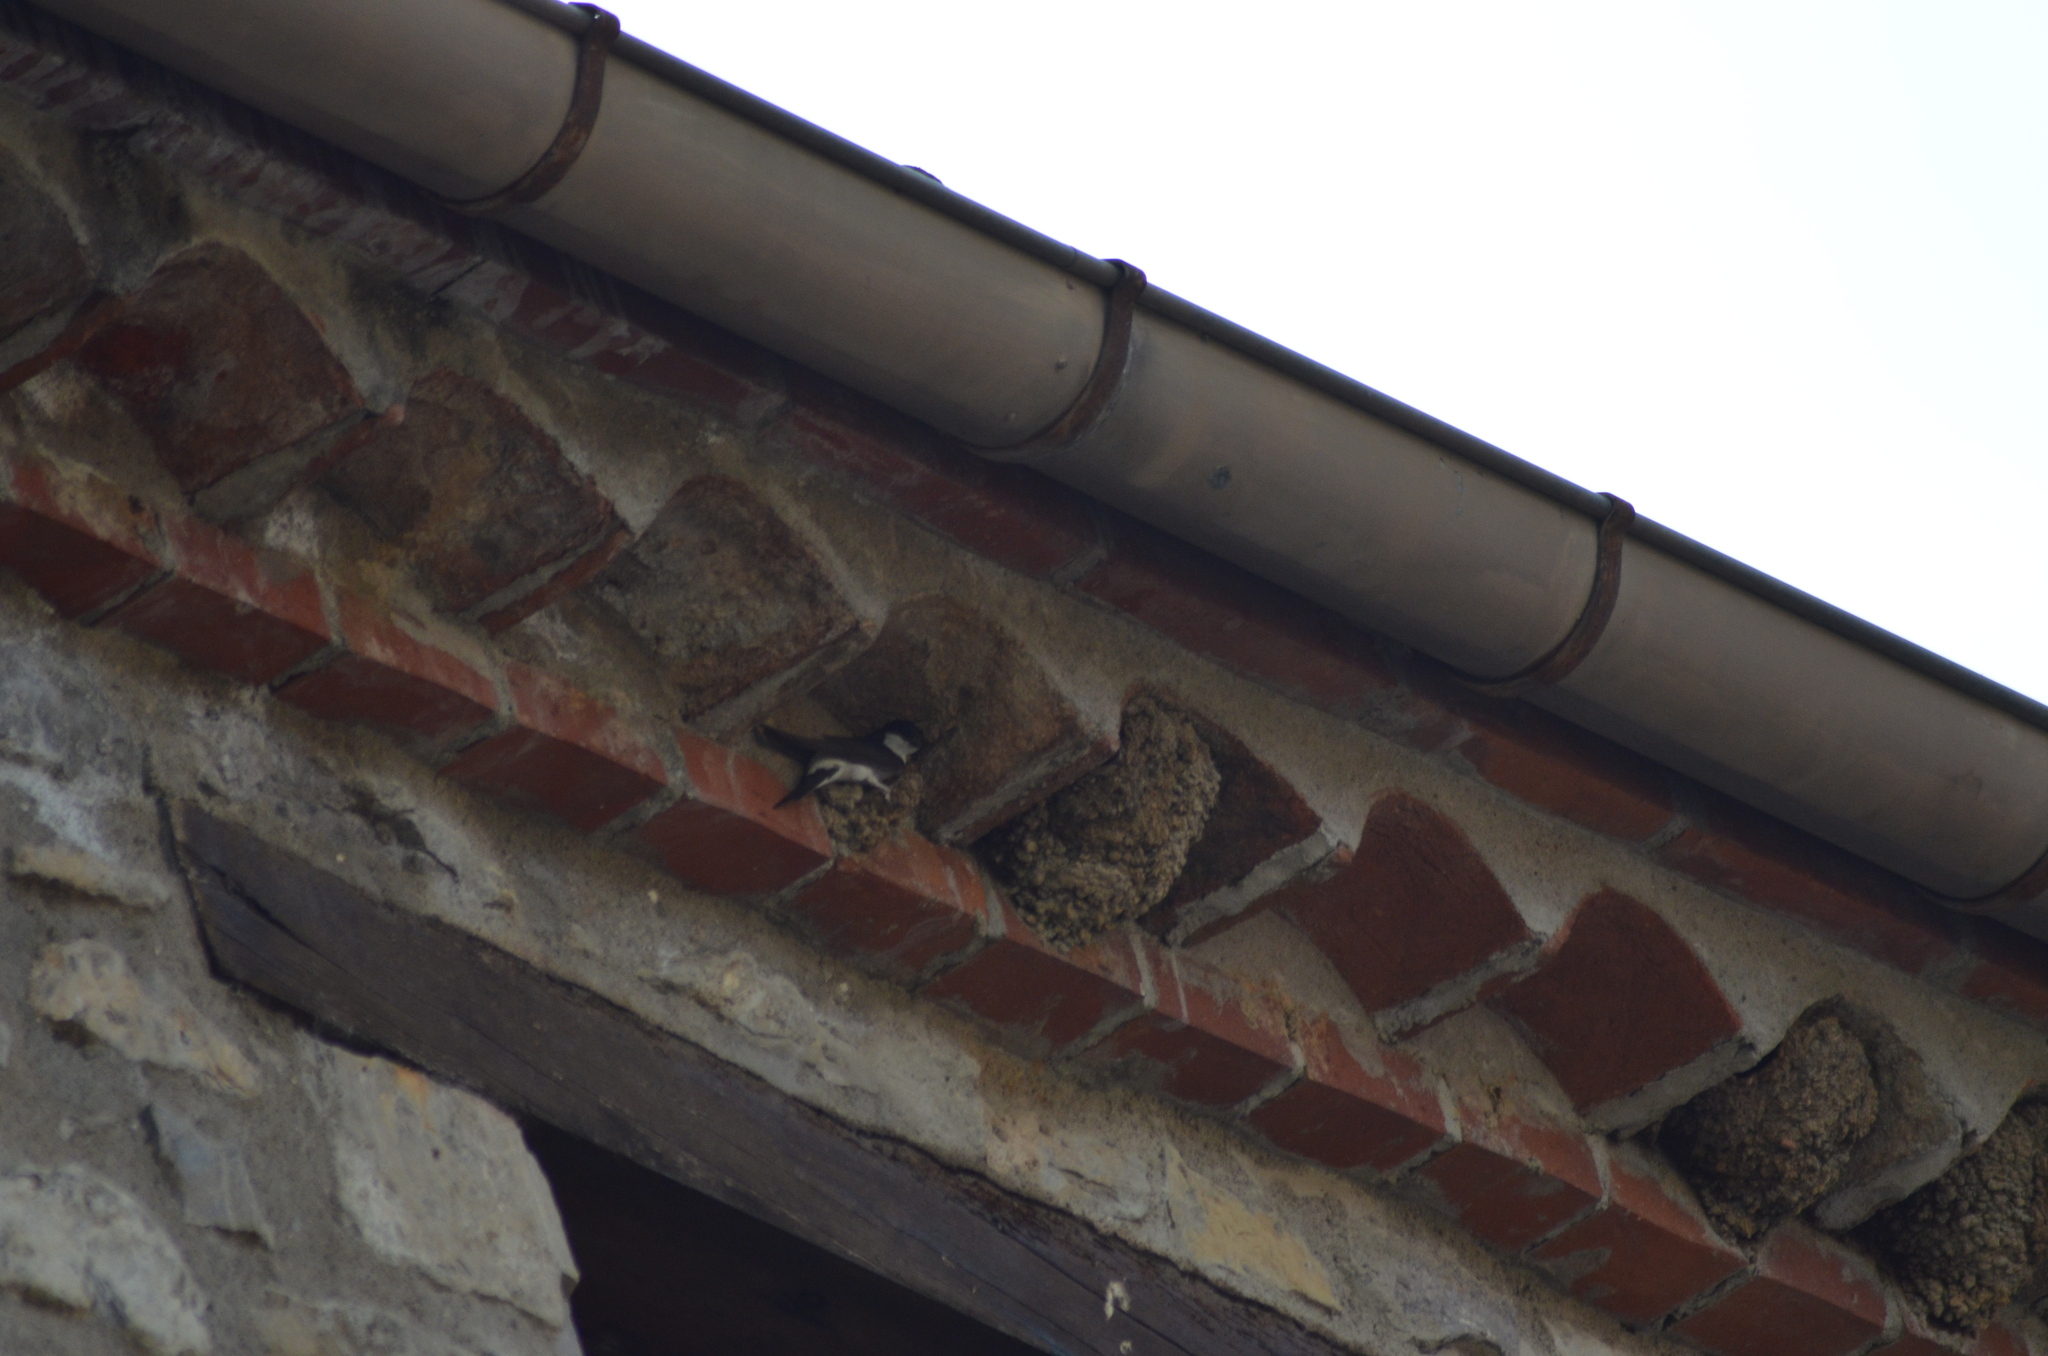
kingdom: Animalia
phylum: Chordata
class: Aves
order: Passeriformes
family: Hirundinidae
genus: Delichon
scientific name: Delichon urbicum
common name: Common house martin
